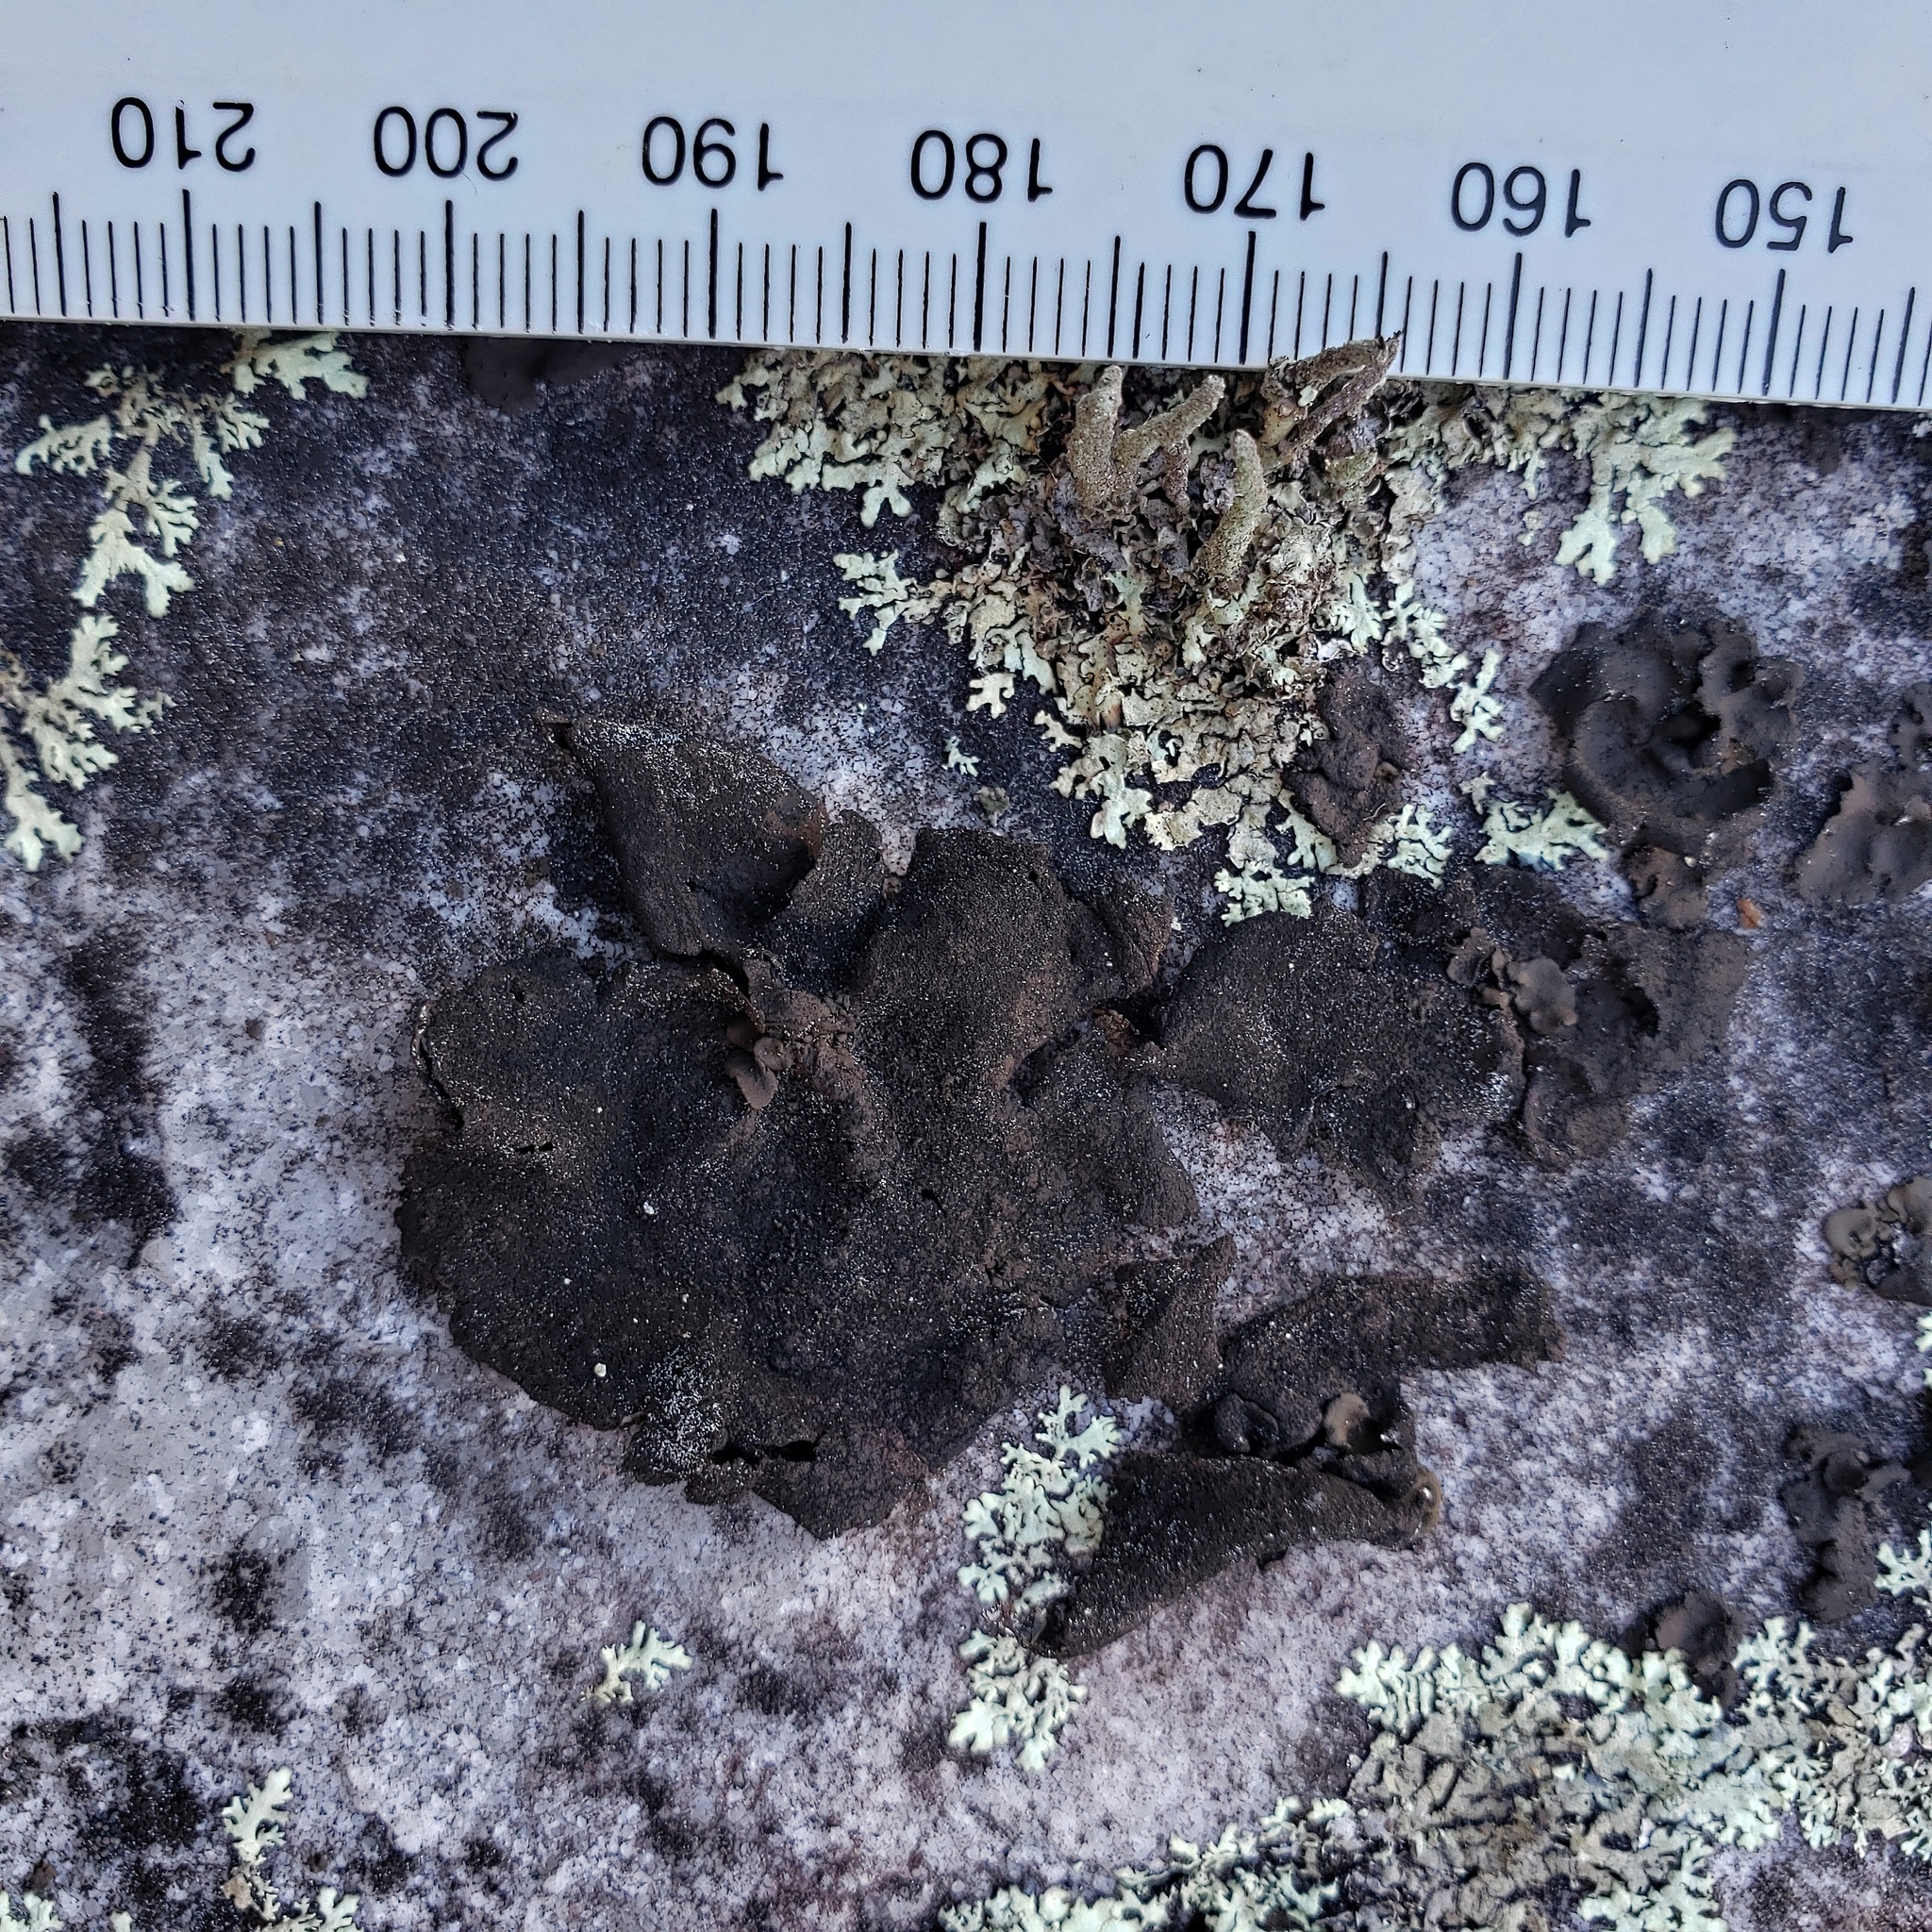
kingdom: Fungi
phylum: Ascomycota
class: Lecanoromycetes
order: Umbilicariales
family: Umbilicariaceae
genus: Umbilicaria
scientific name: Umbilicaria deusta
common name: Peppered rock tripe
